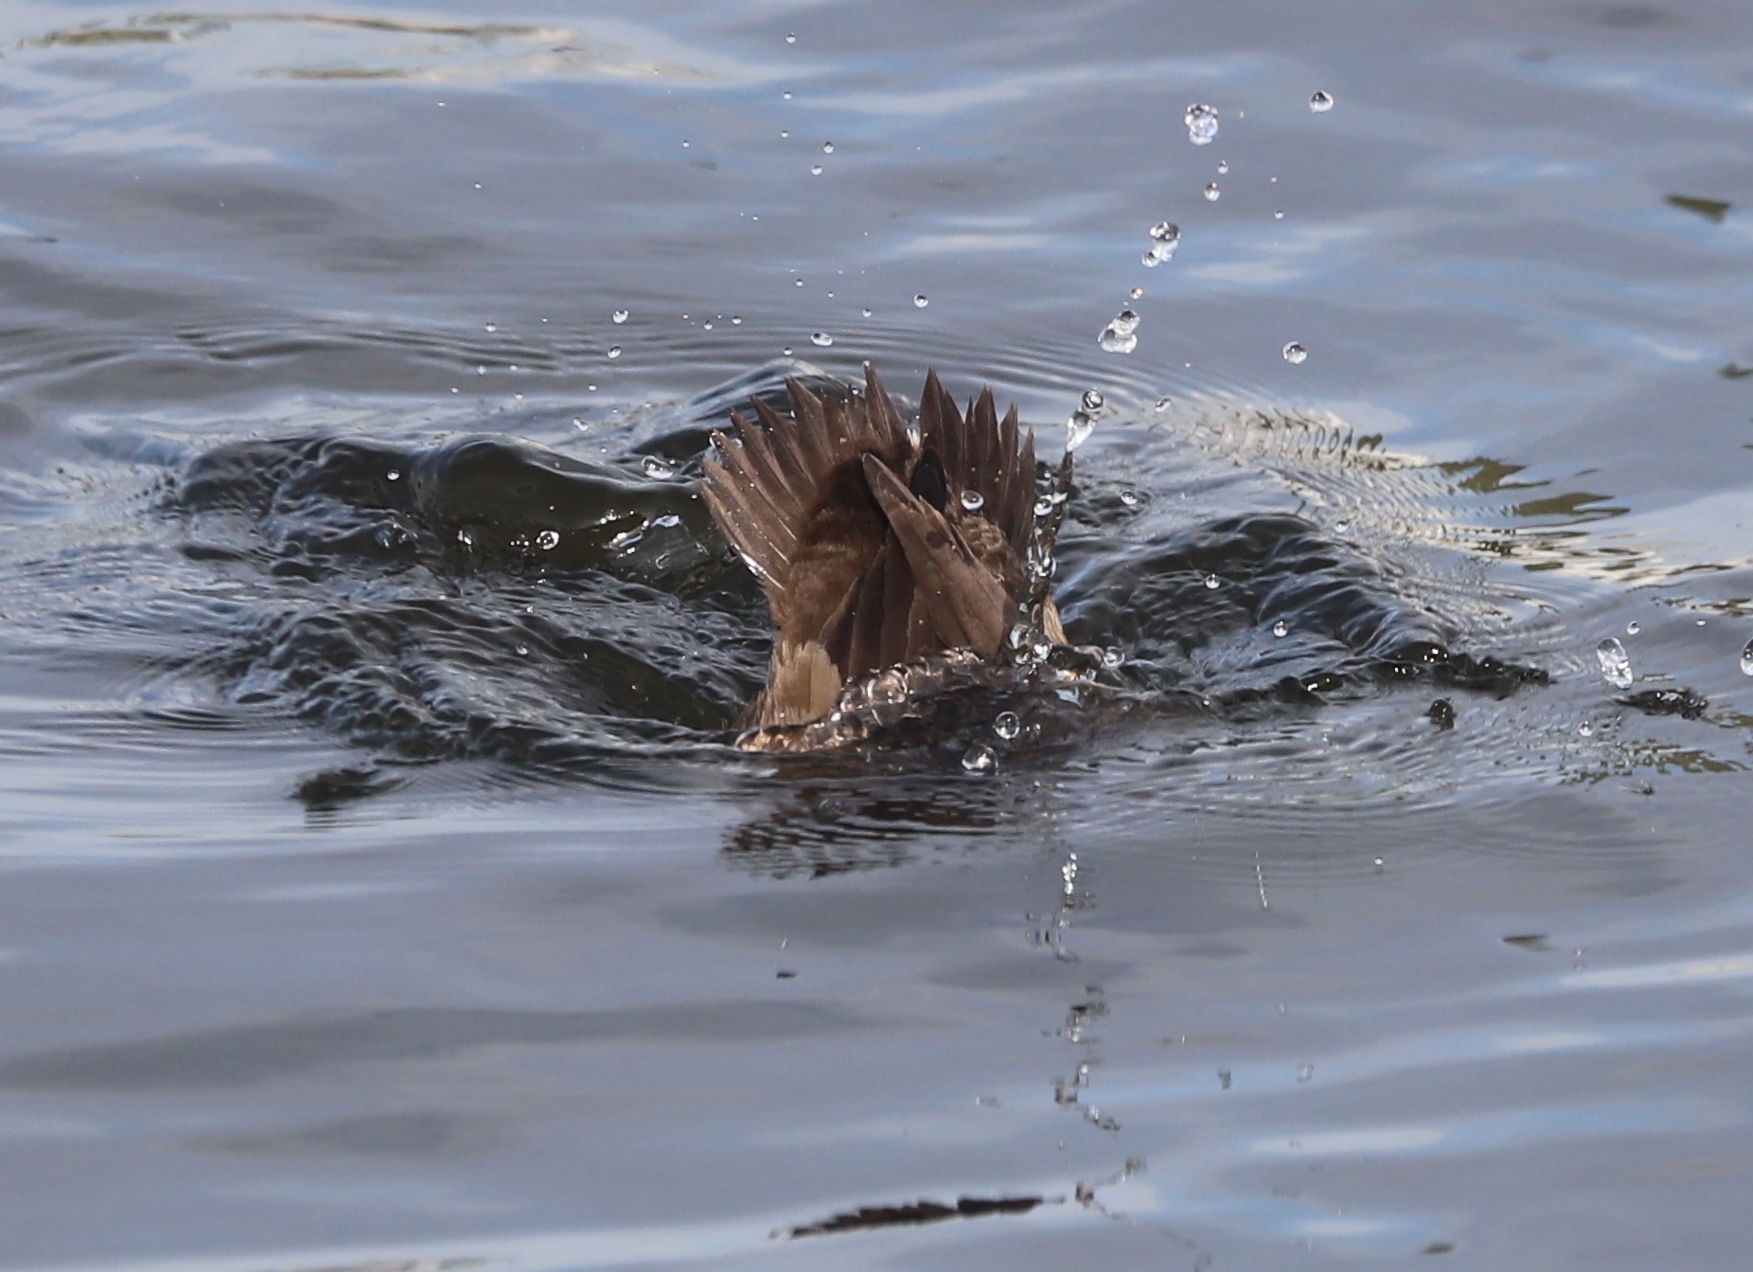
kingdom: Animalia
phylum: Chordata
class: Aves
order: Anseriformes
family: Anatidae
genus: Aythya
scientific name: Aythya affinis
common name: Lesser scaup
